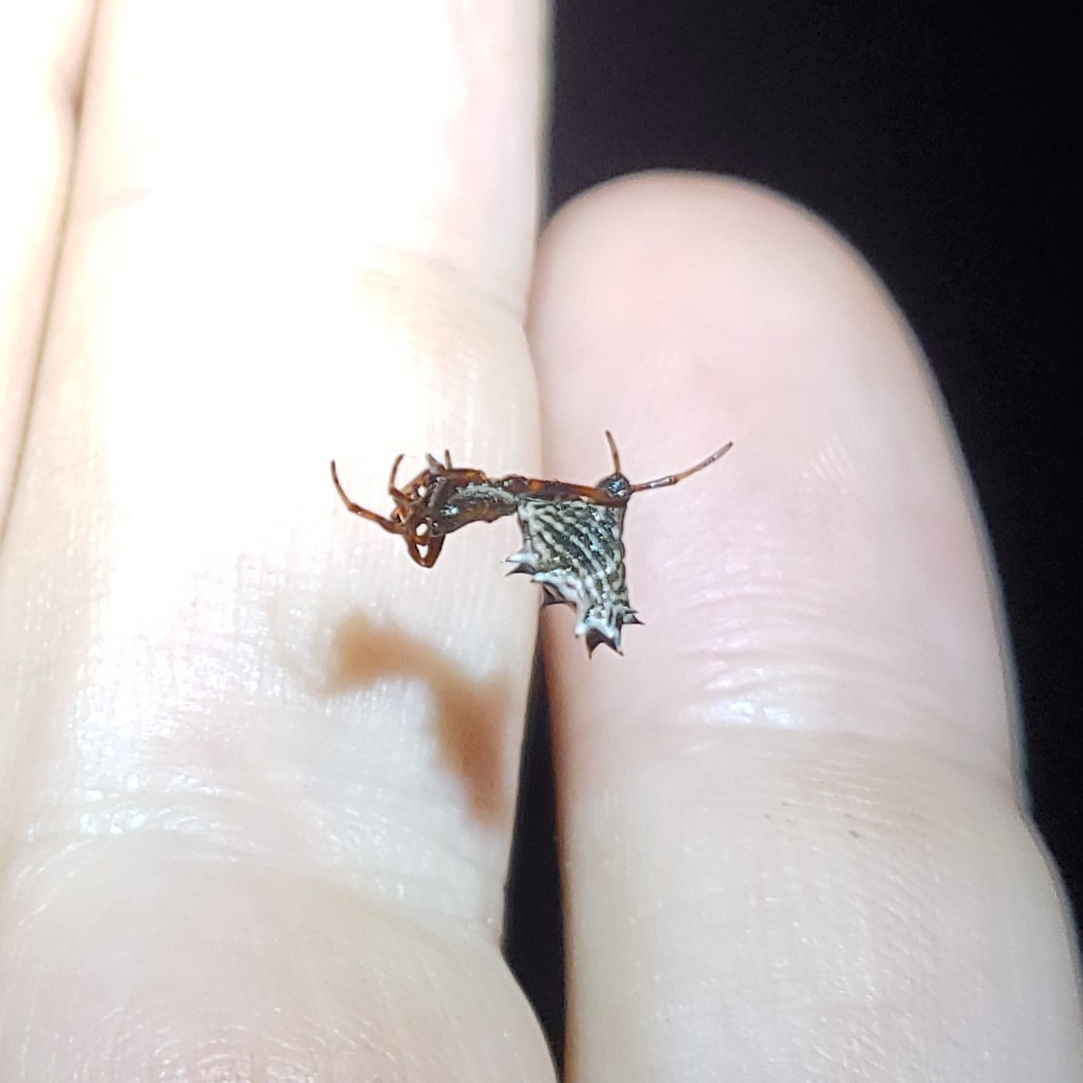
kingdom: Animalia
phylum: Arthropoda
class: Arachnida
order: Araneae
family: Araneidae
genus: Micrathena
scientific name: Micrathena gracilis
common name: Orb weavers
